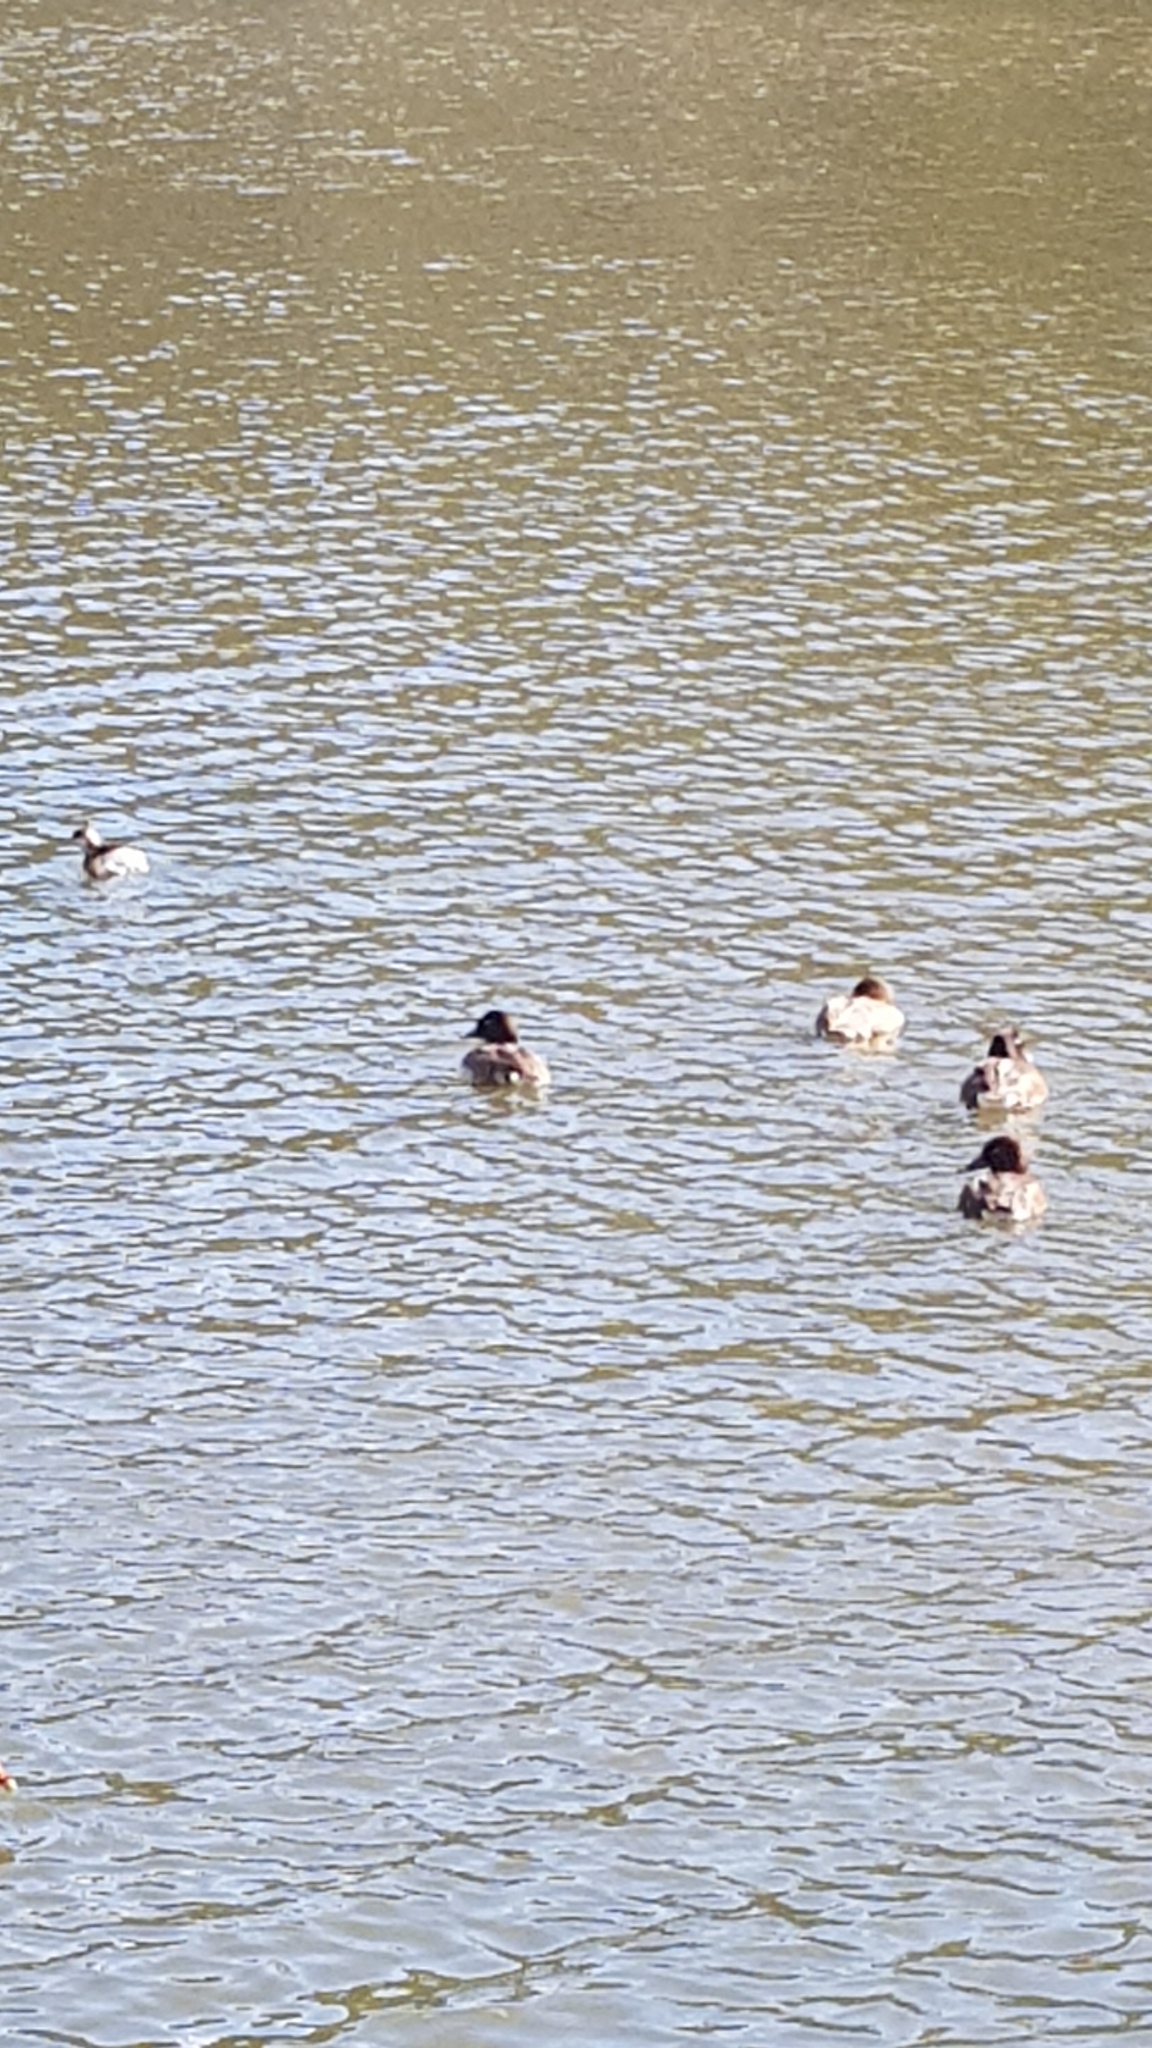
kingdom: Animalia
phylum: Chordata
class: Aves
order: Anseriformes
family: Anatidae
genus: Aythya
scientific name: Aythya australis
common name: Hardhead
